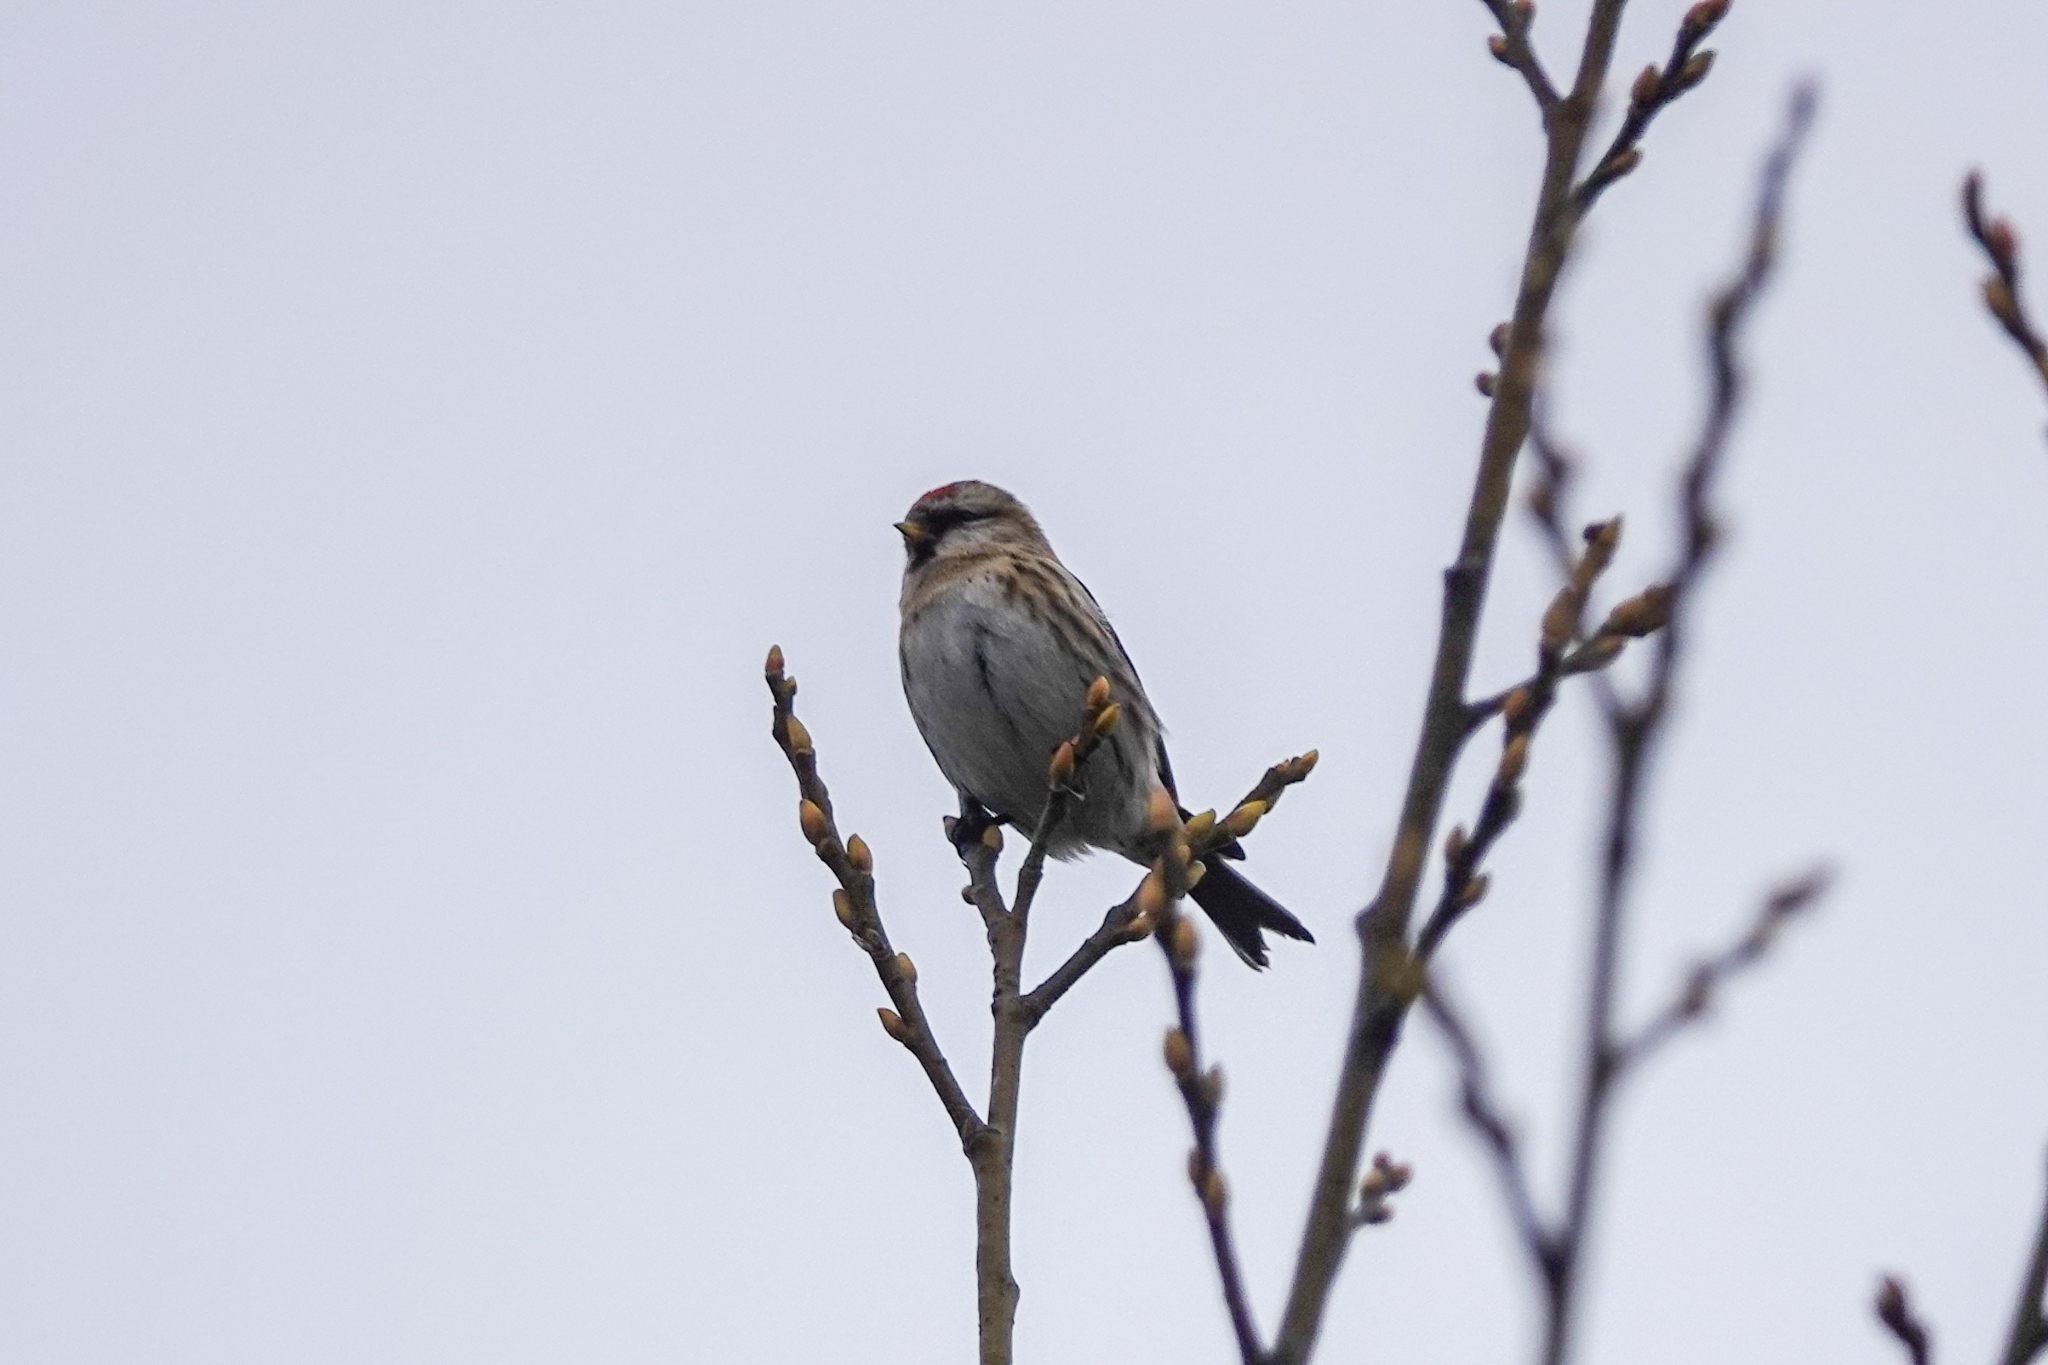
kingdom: Animalia
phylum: Chordata
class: Aves
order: Passeriformes
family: Fringillidae
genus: Acanthis
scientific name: Acanthis flammea
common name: Common redpoll
